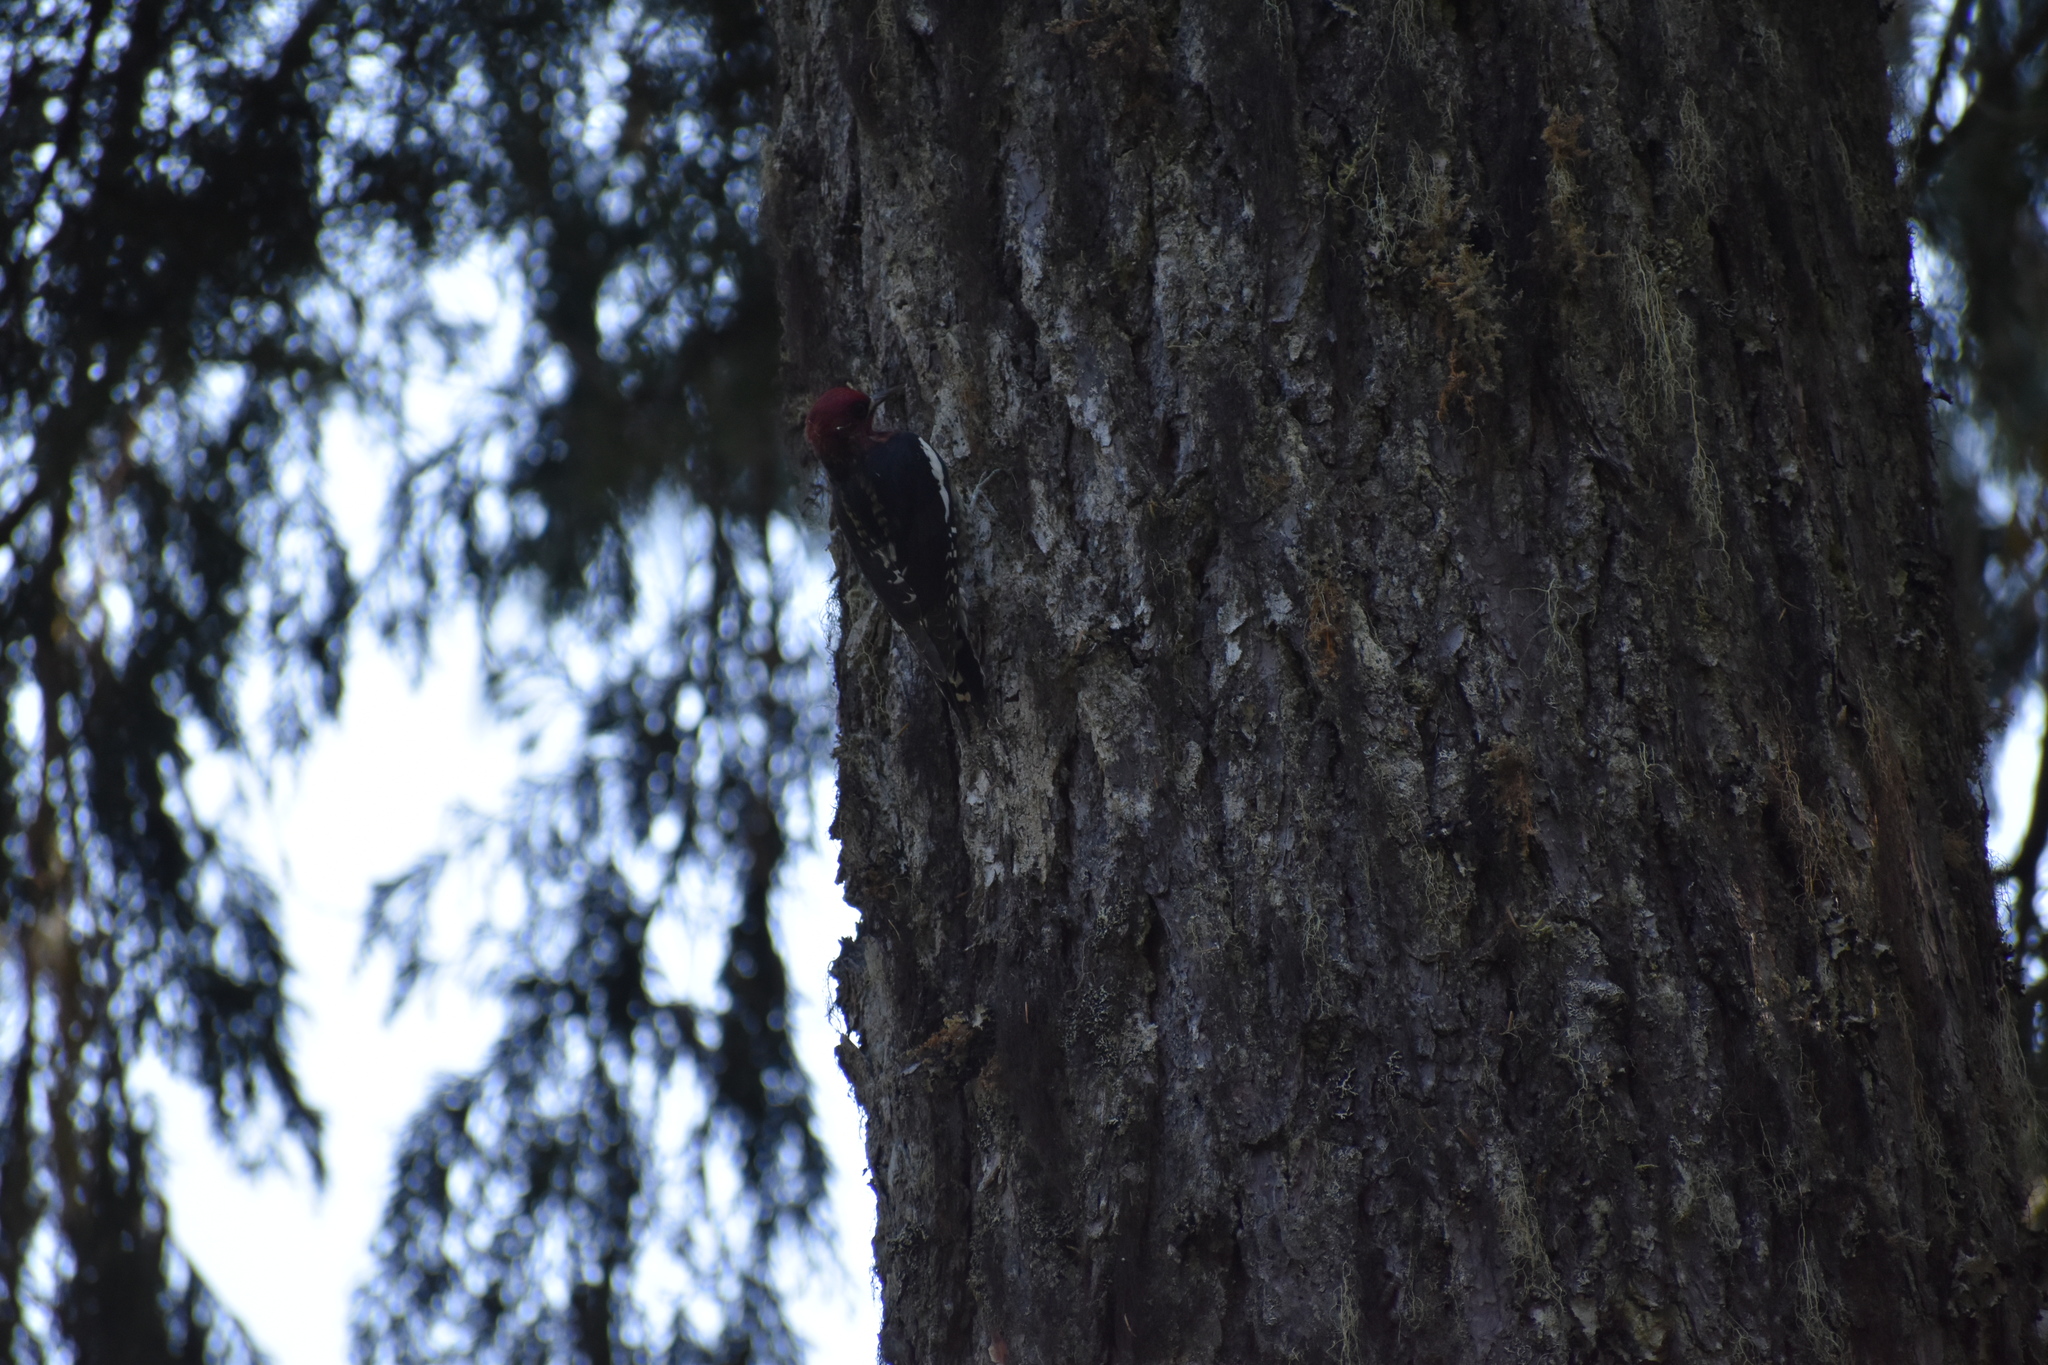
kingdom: Animalia
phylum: Chordata
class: Aves
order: Piciformes
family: Picidae
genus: Sphyrapicus
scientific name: Sphyrapicus ruber
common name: Red-breasted sapsucker
